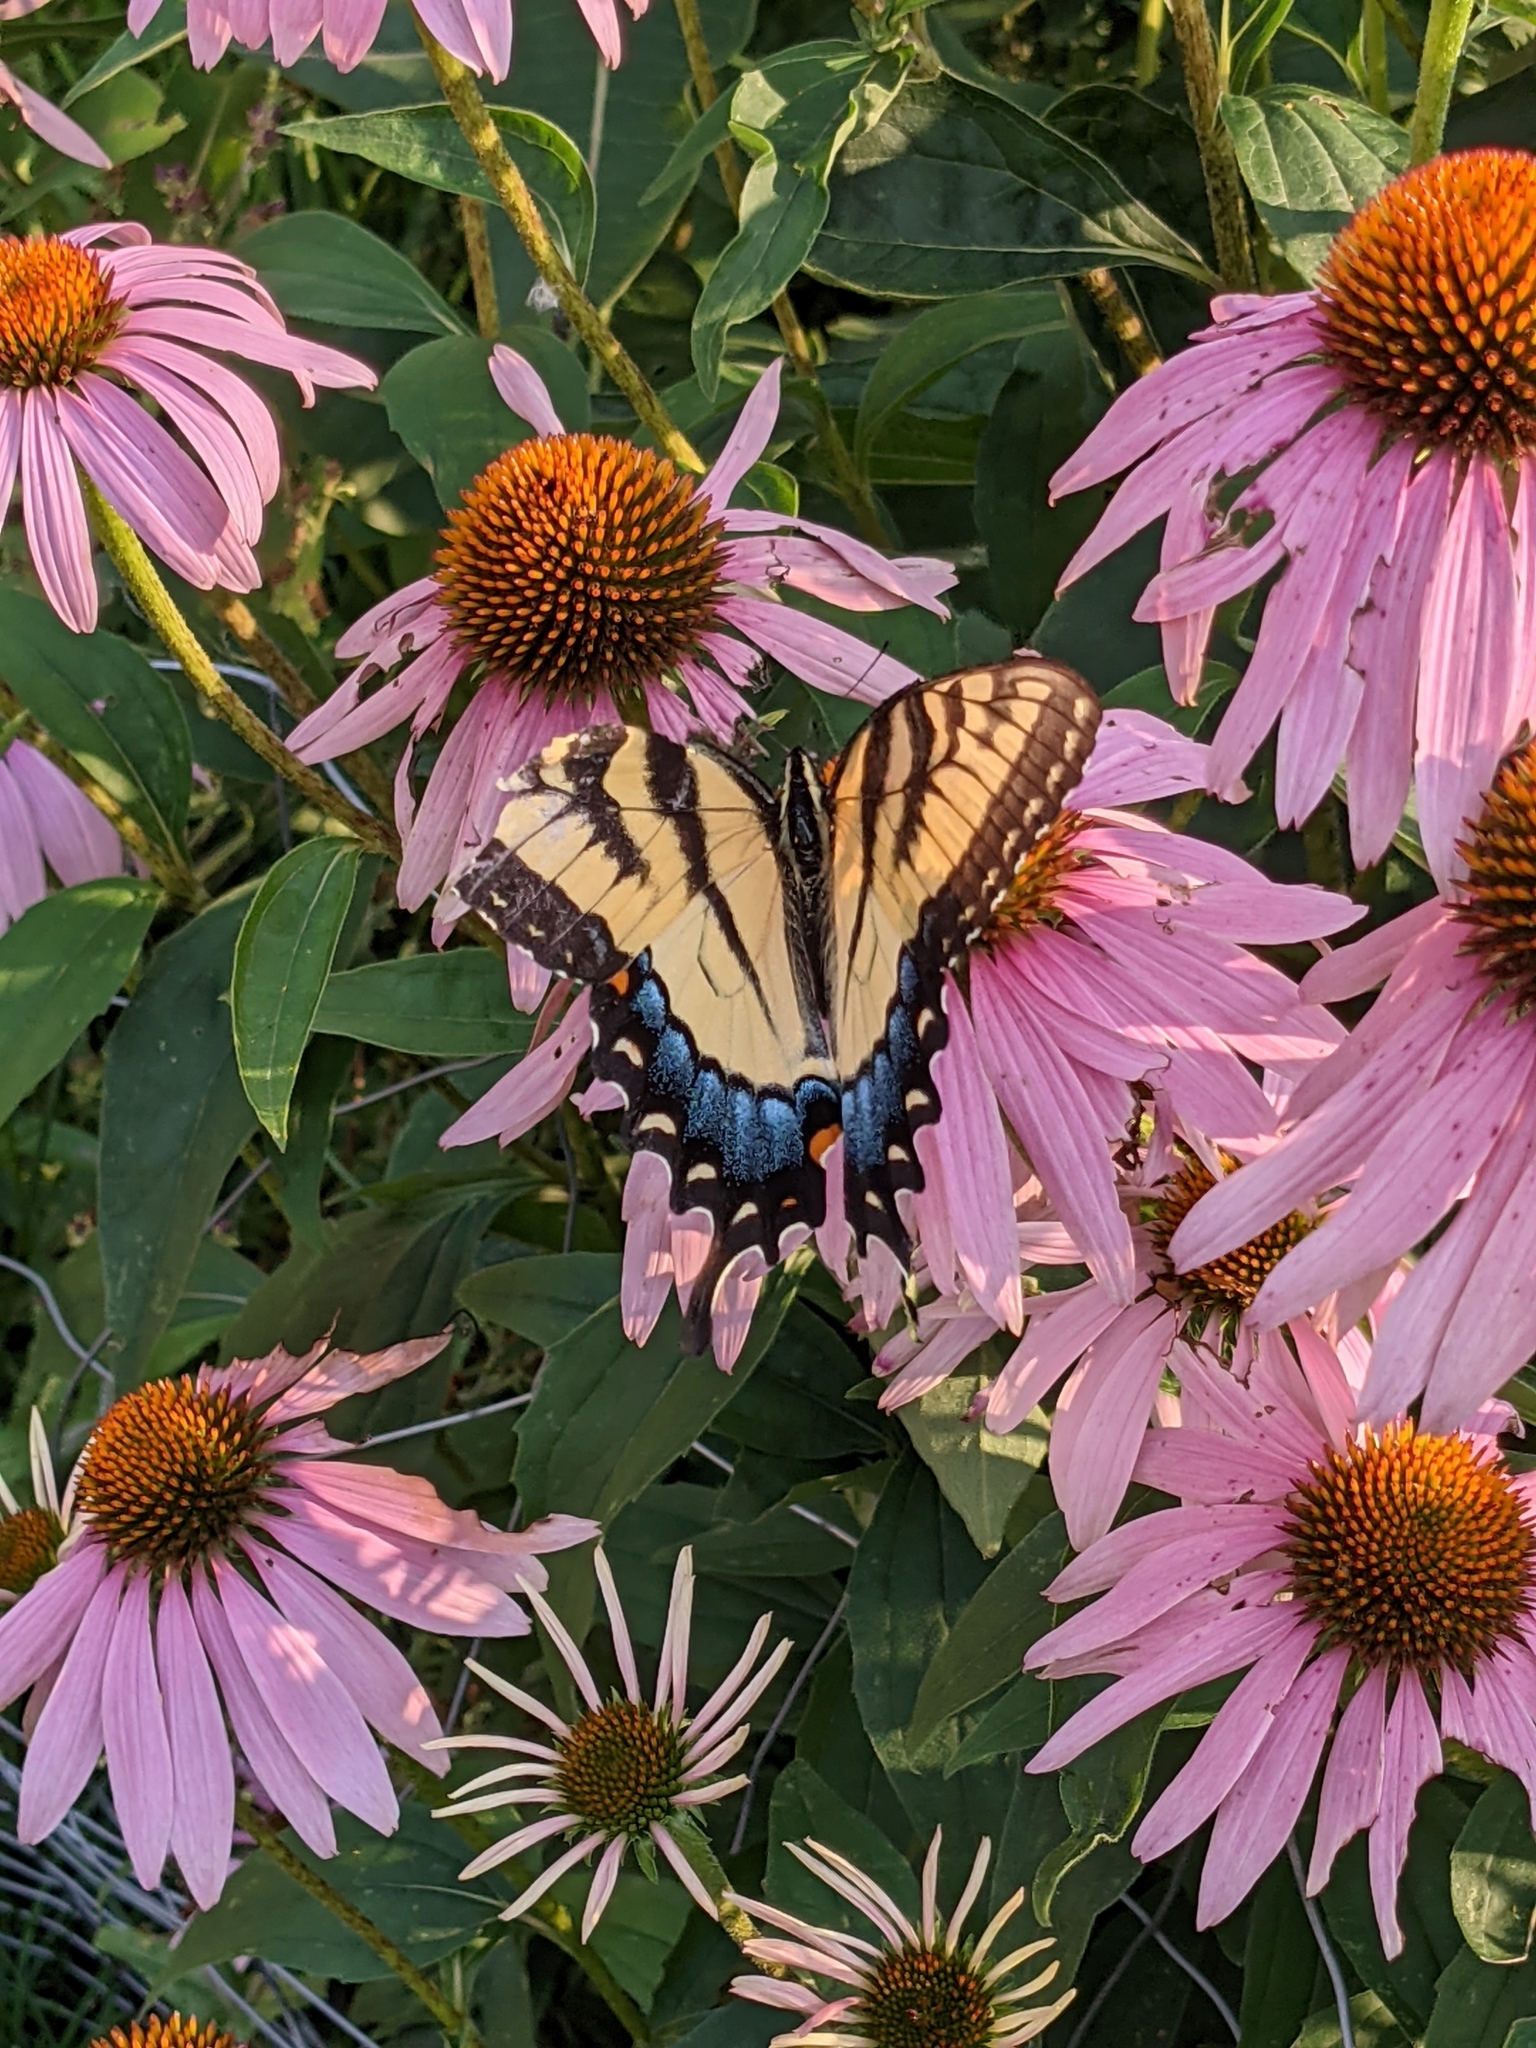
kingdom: Animalia
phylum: Arthropoda
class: Insecta
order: Lepidoptera
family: Papilionidae
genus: Papilio
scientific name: Papilio glaucus
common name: Tiger swallowtail
